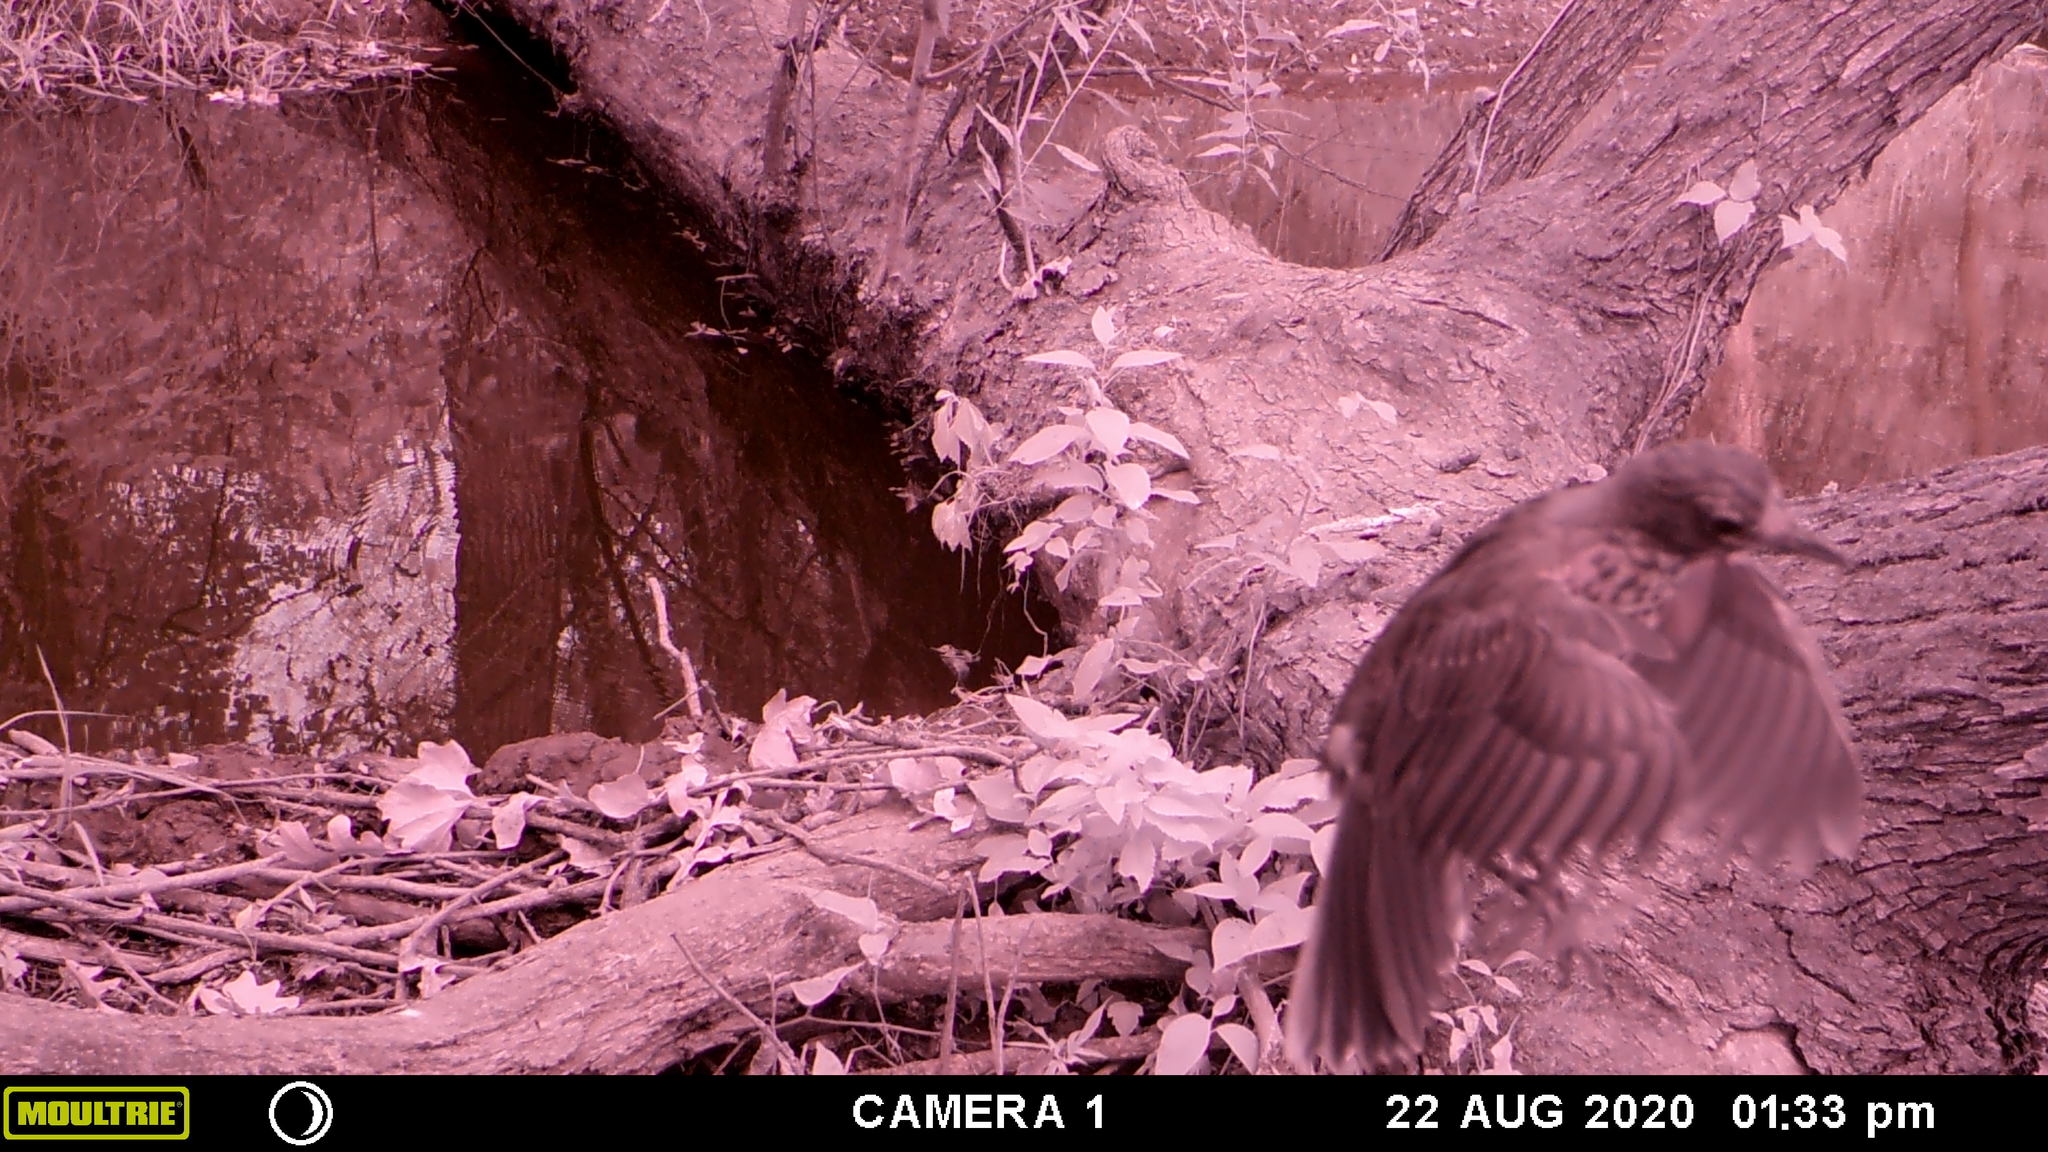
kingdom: Animalia
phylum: Chordata
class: Aves
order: Passeriformes
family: Turdidae
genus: Turdus
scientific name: Turdus migratorius
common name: American robin
